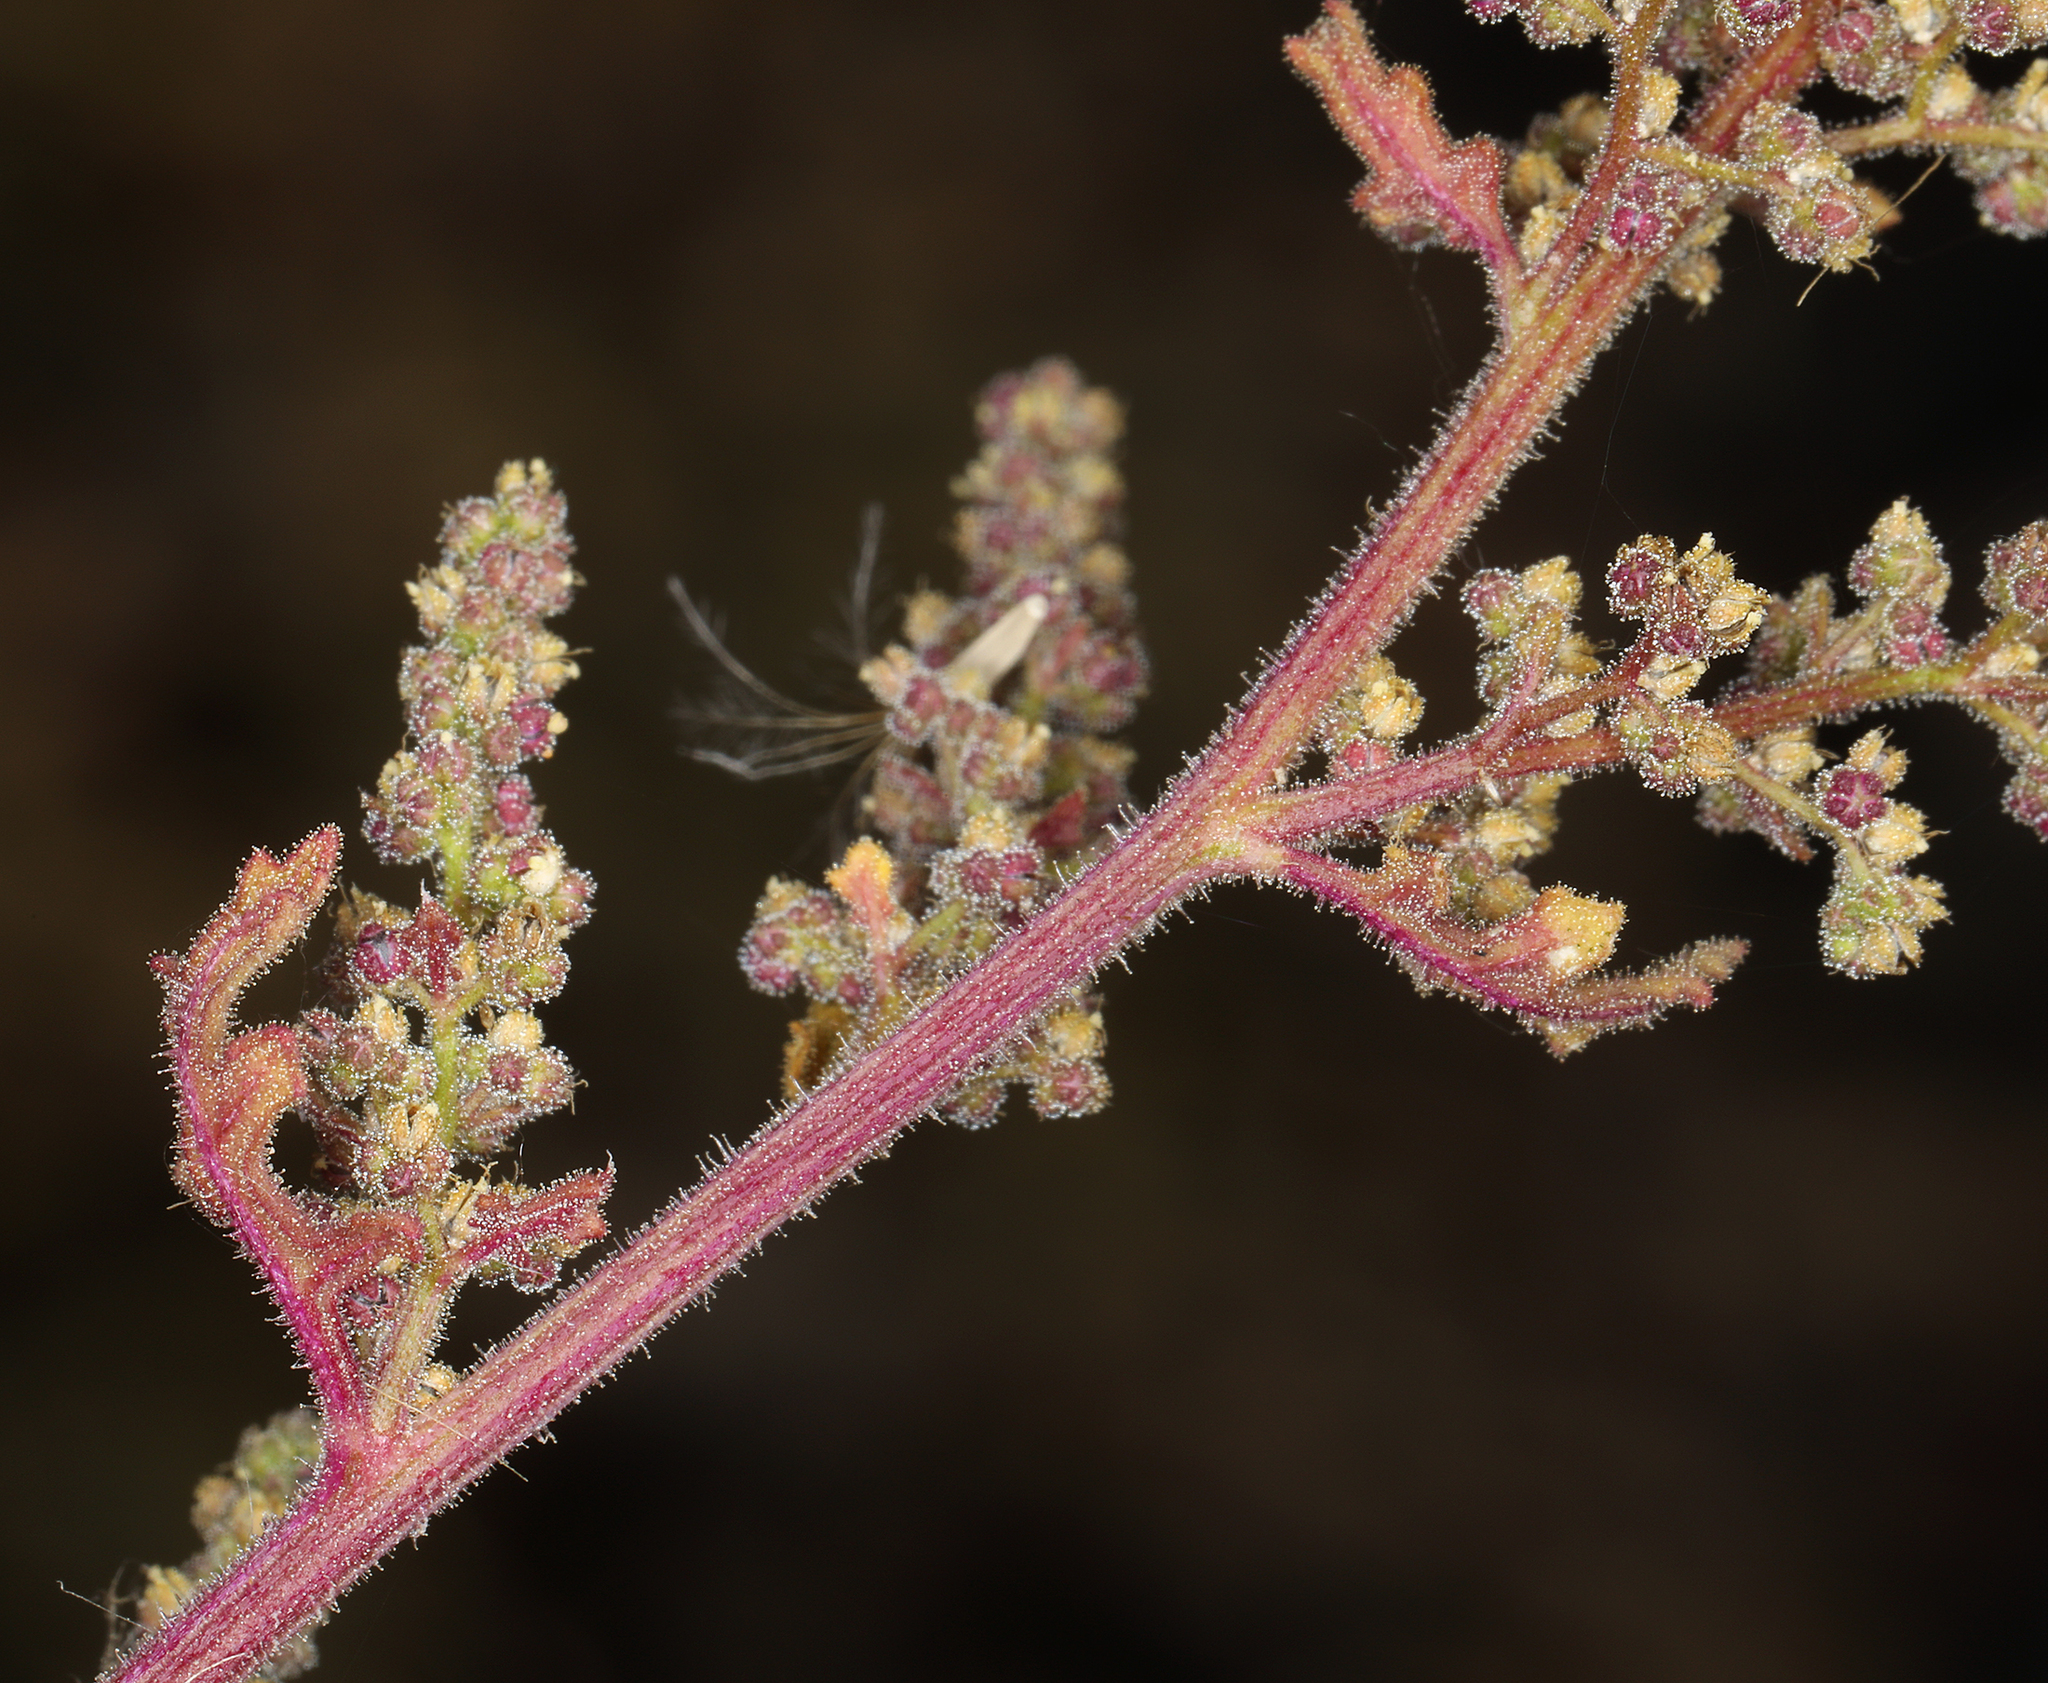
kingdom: Plantae
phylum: Tracheophyta
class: Magnoliopsida
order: Caryophyllales
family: Amaranthaceae
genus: Dysphania
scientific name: Dysphania botrys
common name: Feather-geranium
